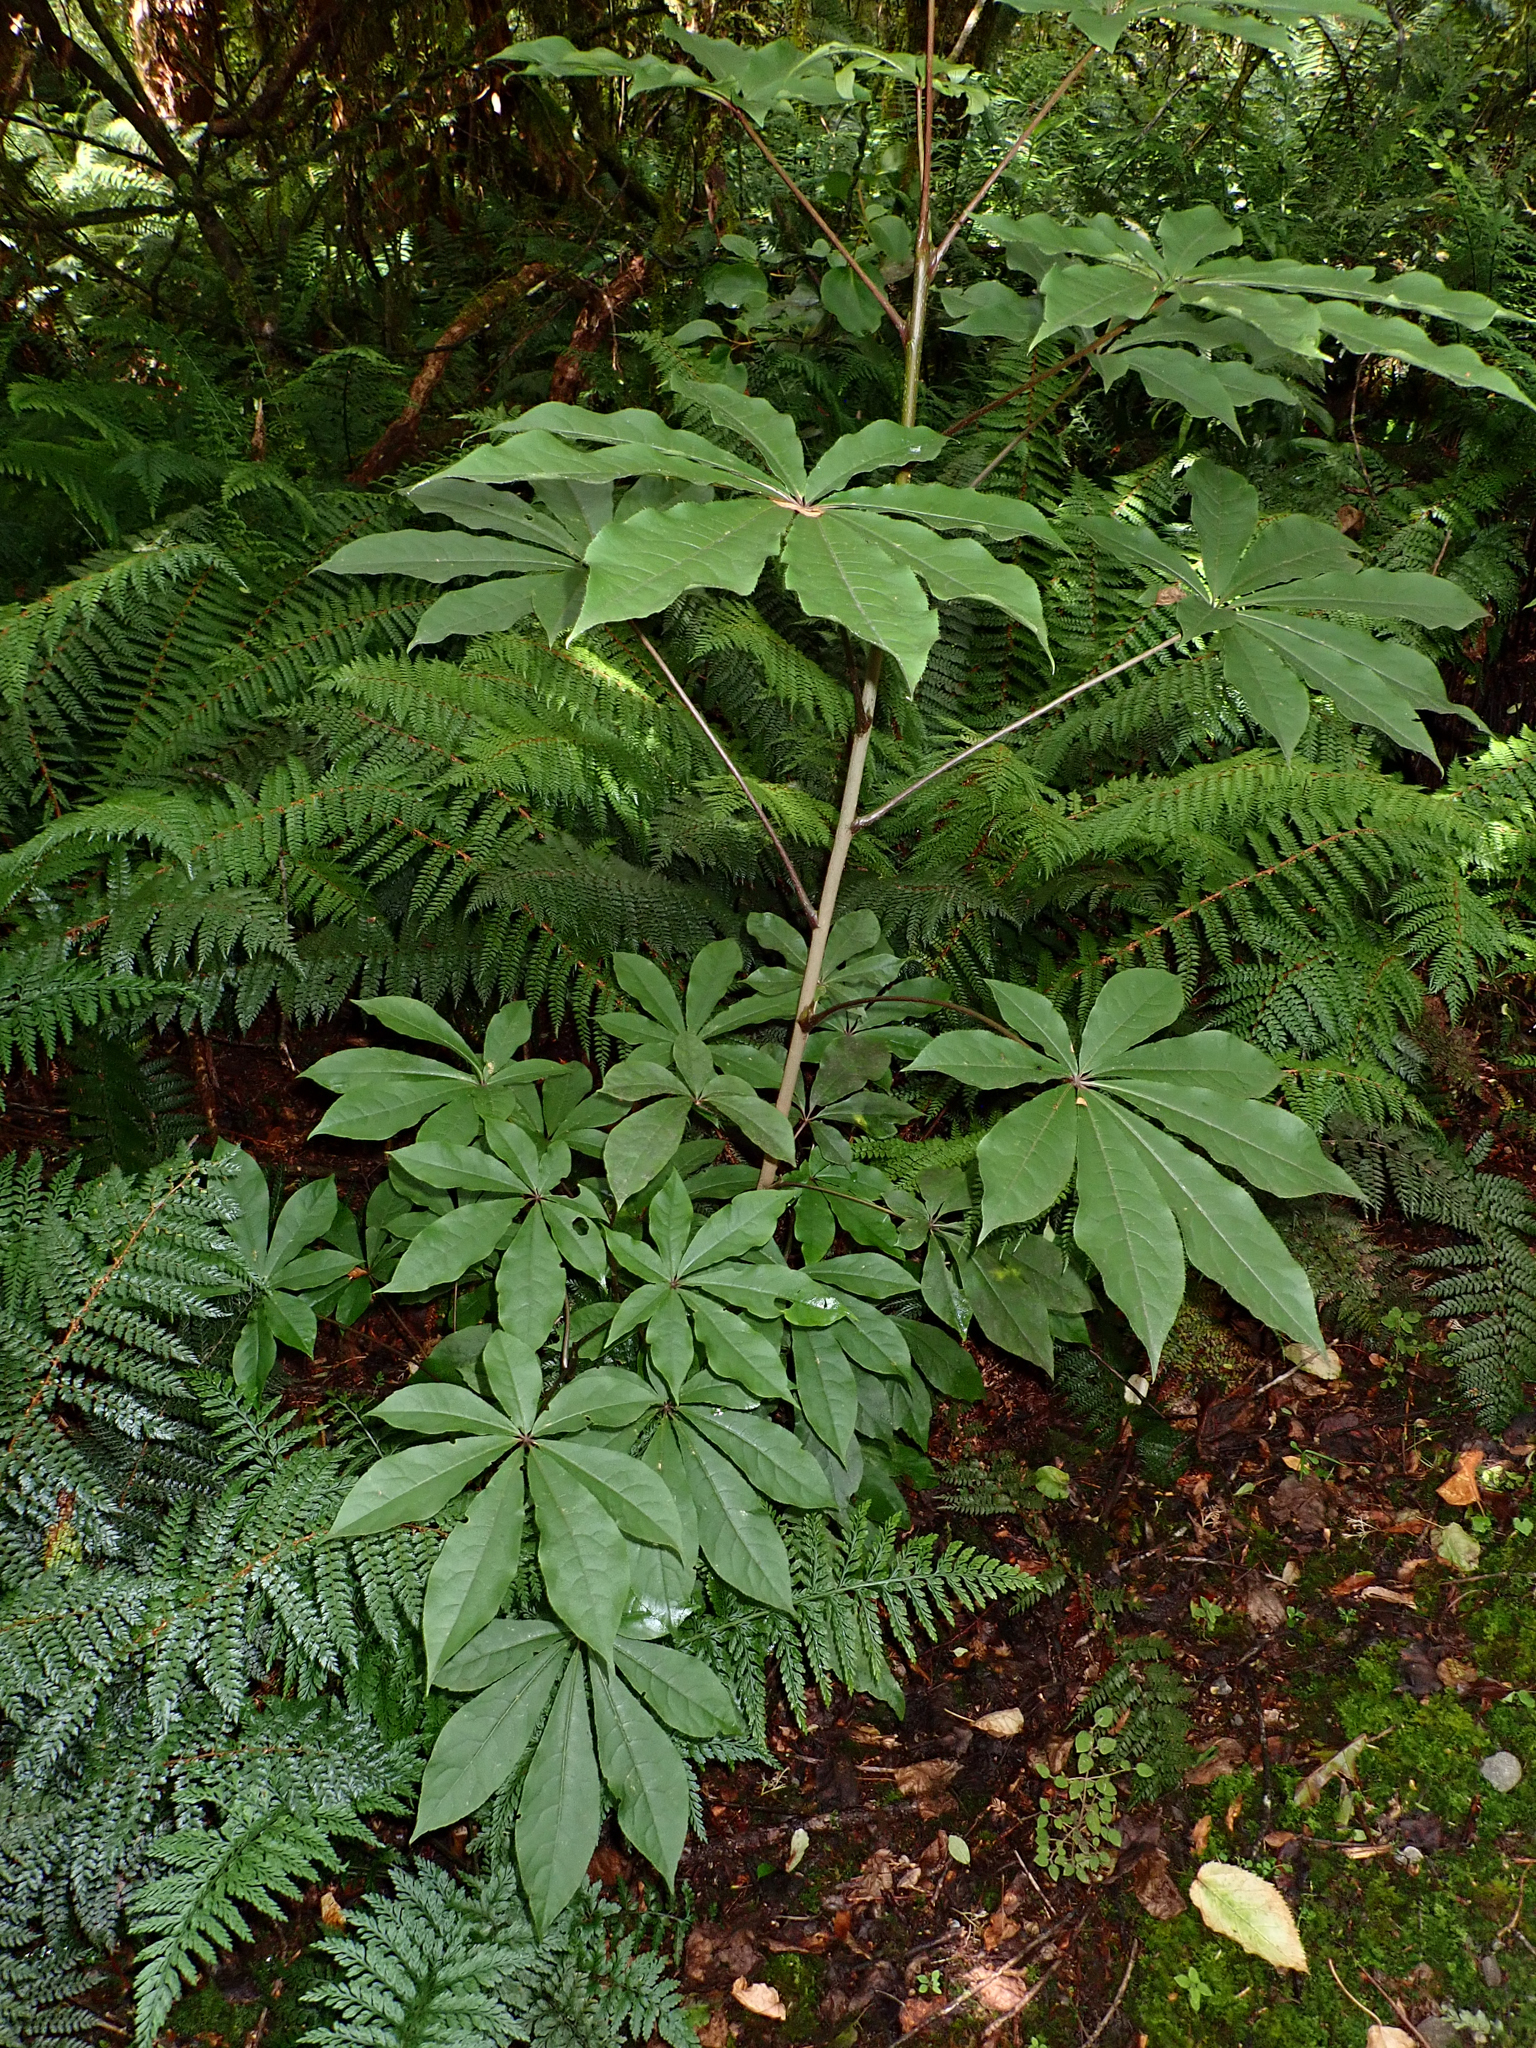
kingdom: Plantae
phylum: Tracheophyta
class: Magnoliopsida
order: Apiales
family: Araliaceae
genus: Schefflera
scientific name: Schefflera digitata
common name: Pate
